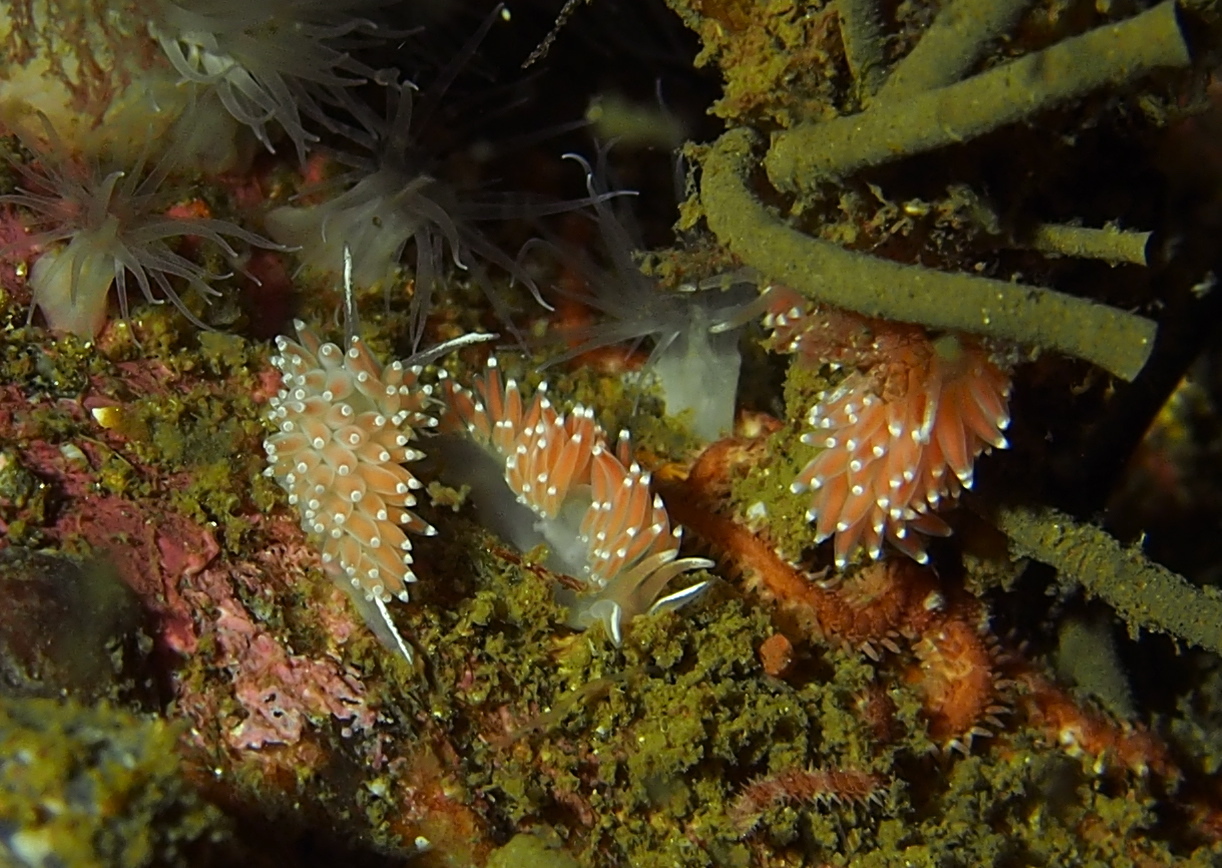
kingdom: Animalia
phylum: Mollusca
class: Gastropoda
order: Nudibranchia
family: Coryphellidae
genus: Coryphella
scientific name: Coryphella verrucosa
